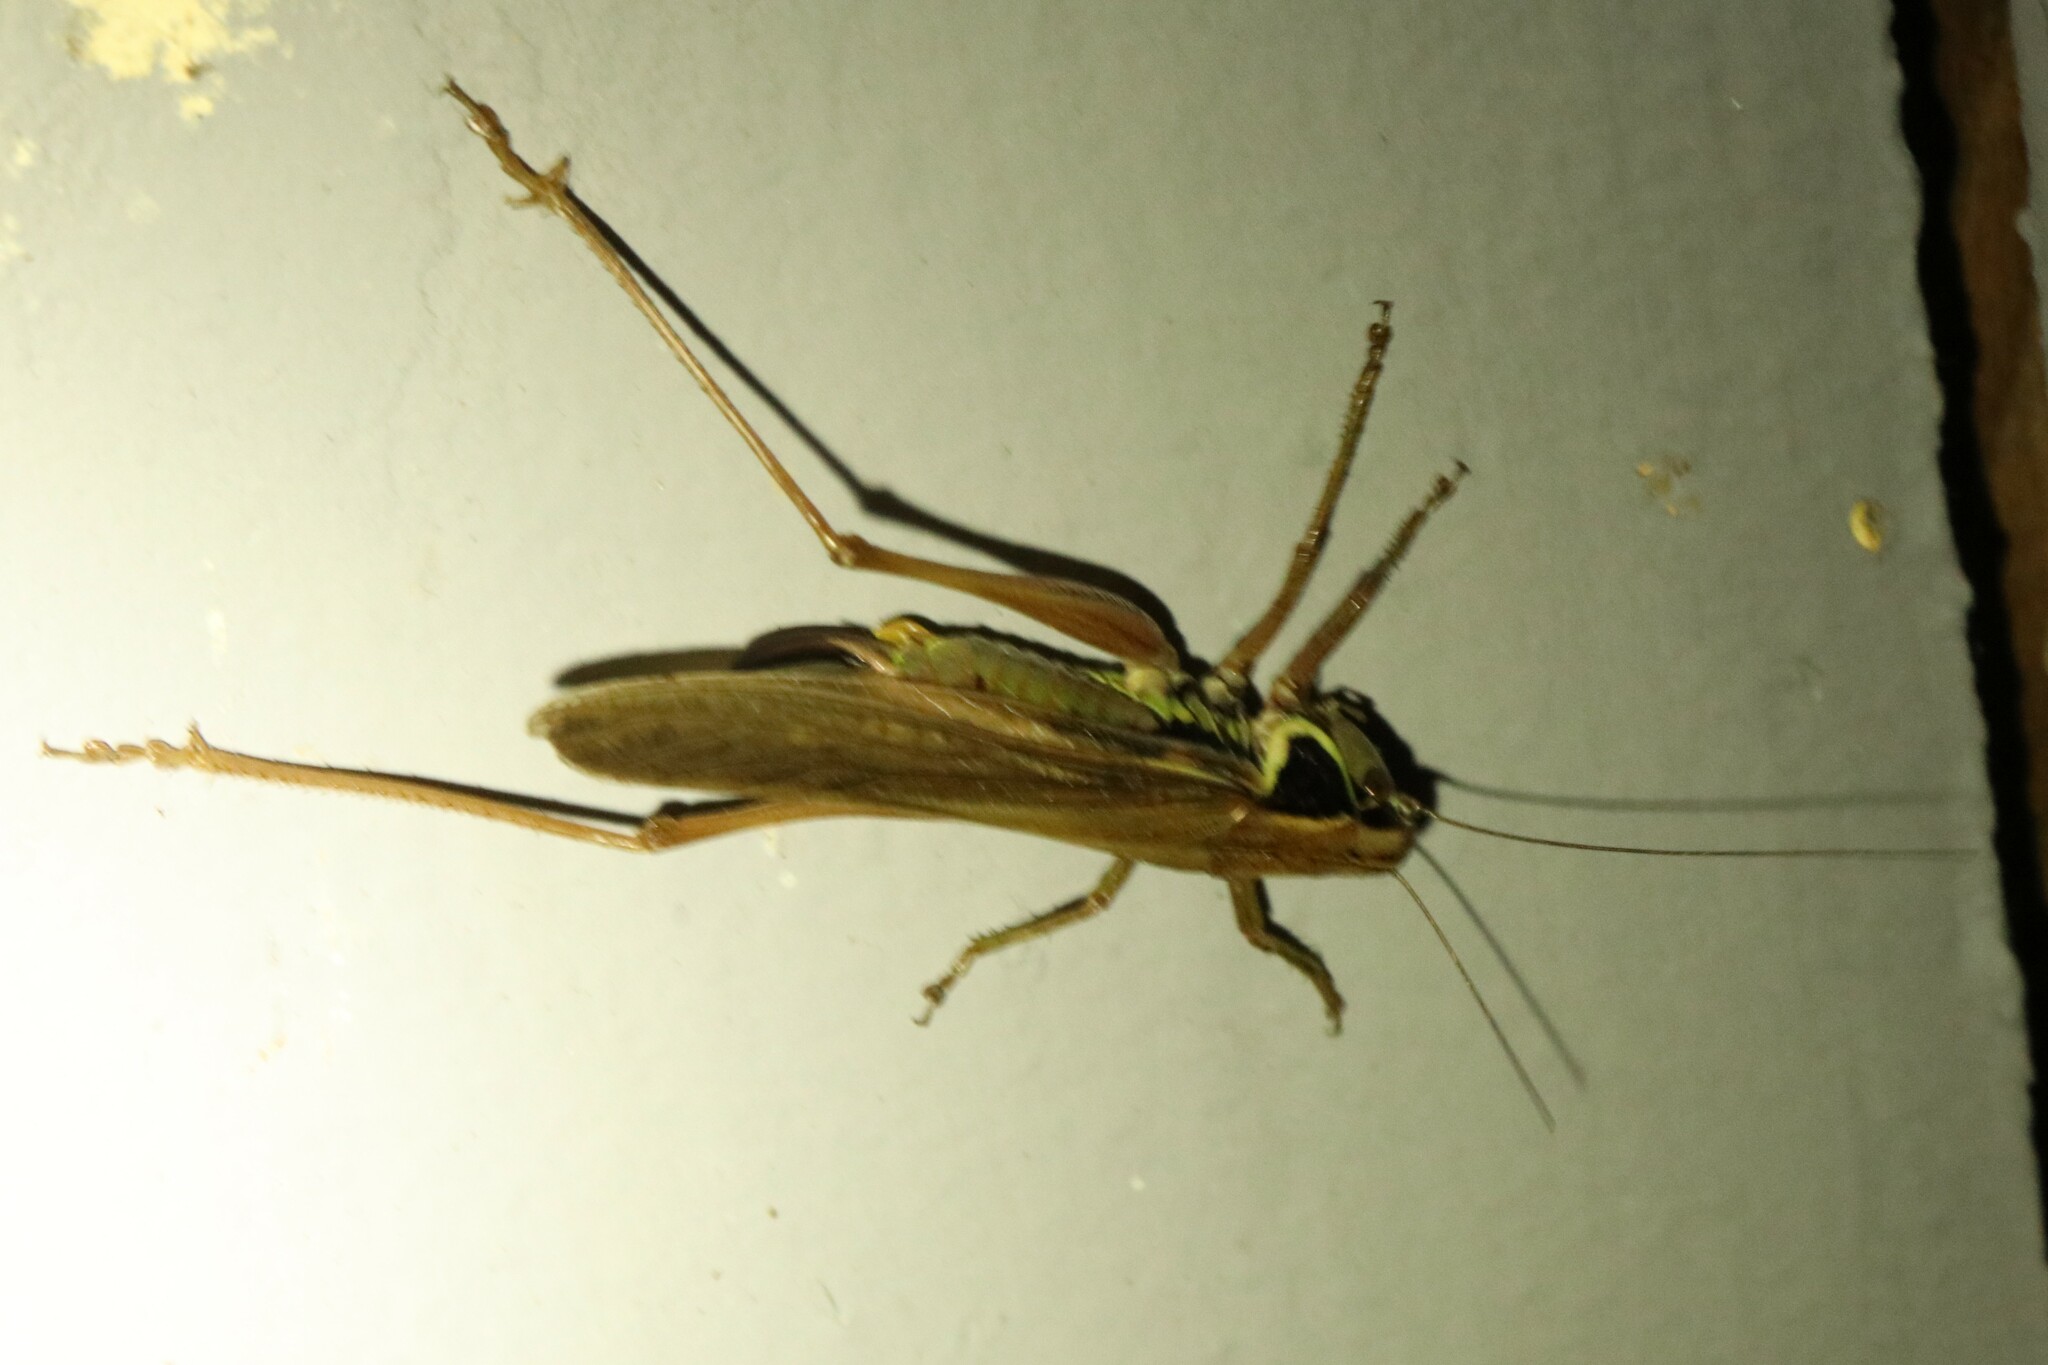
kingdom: Animalia
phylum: Arthropoda
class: Insecta
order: Orthoptera
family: Tettigoniidae
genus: Roeseliana
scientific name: Roeseliana roeselii
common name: Roesel's bush cricket
